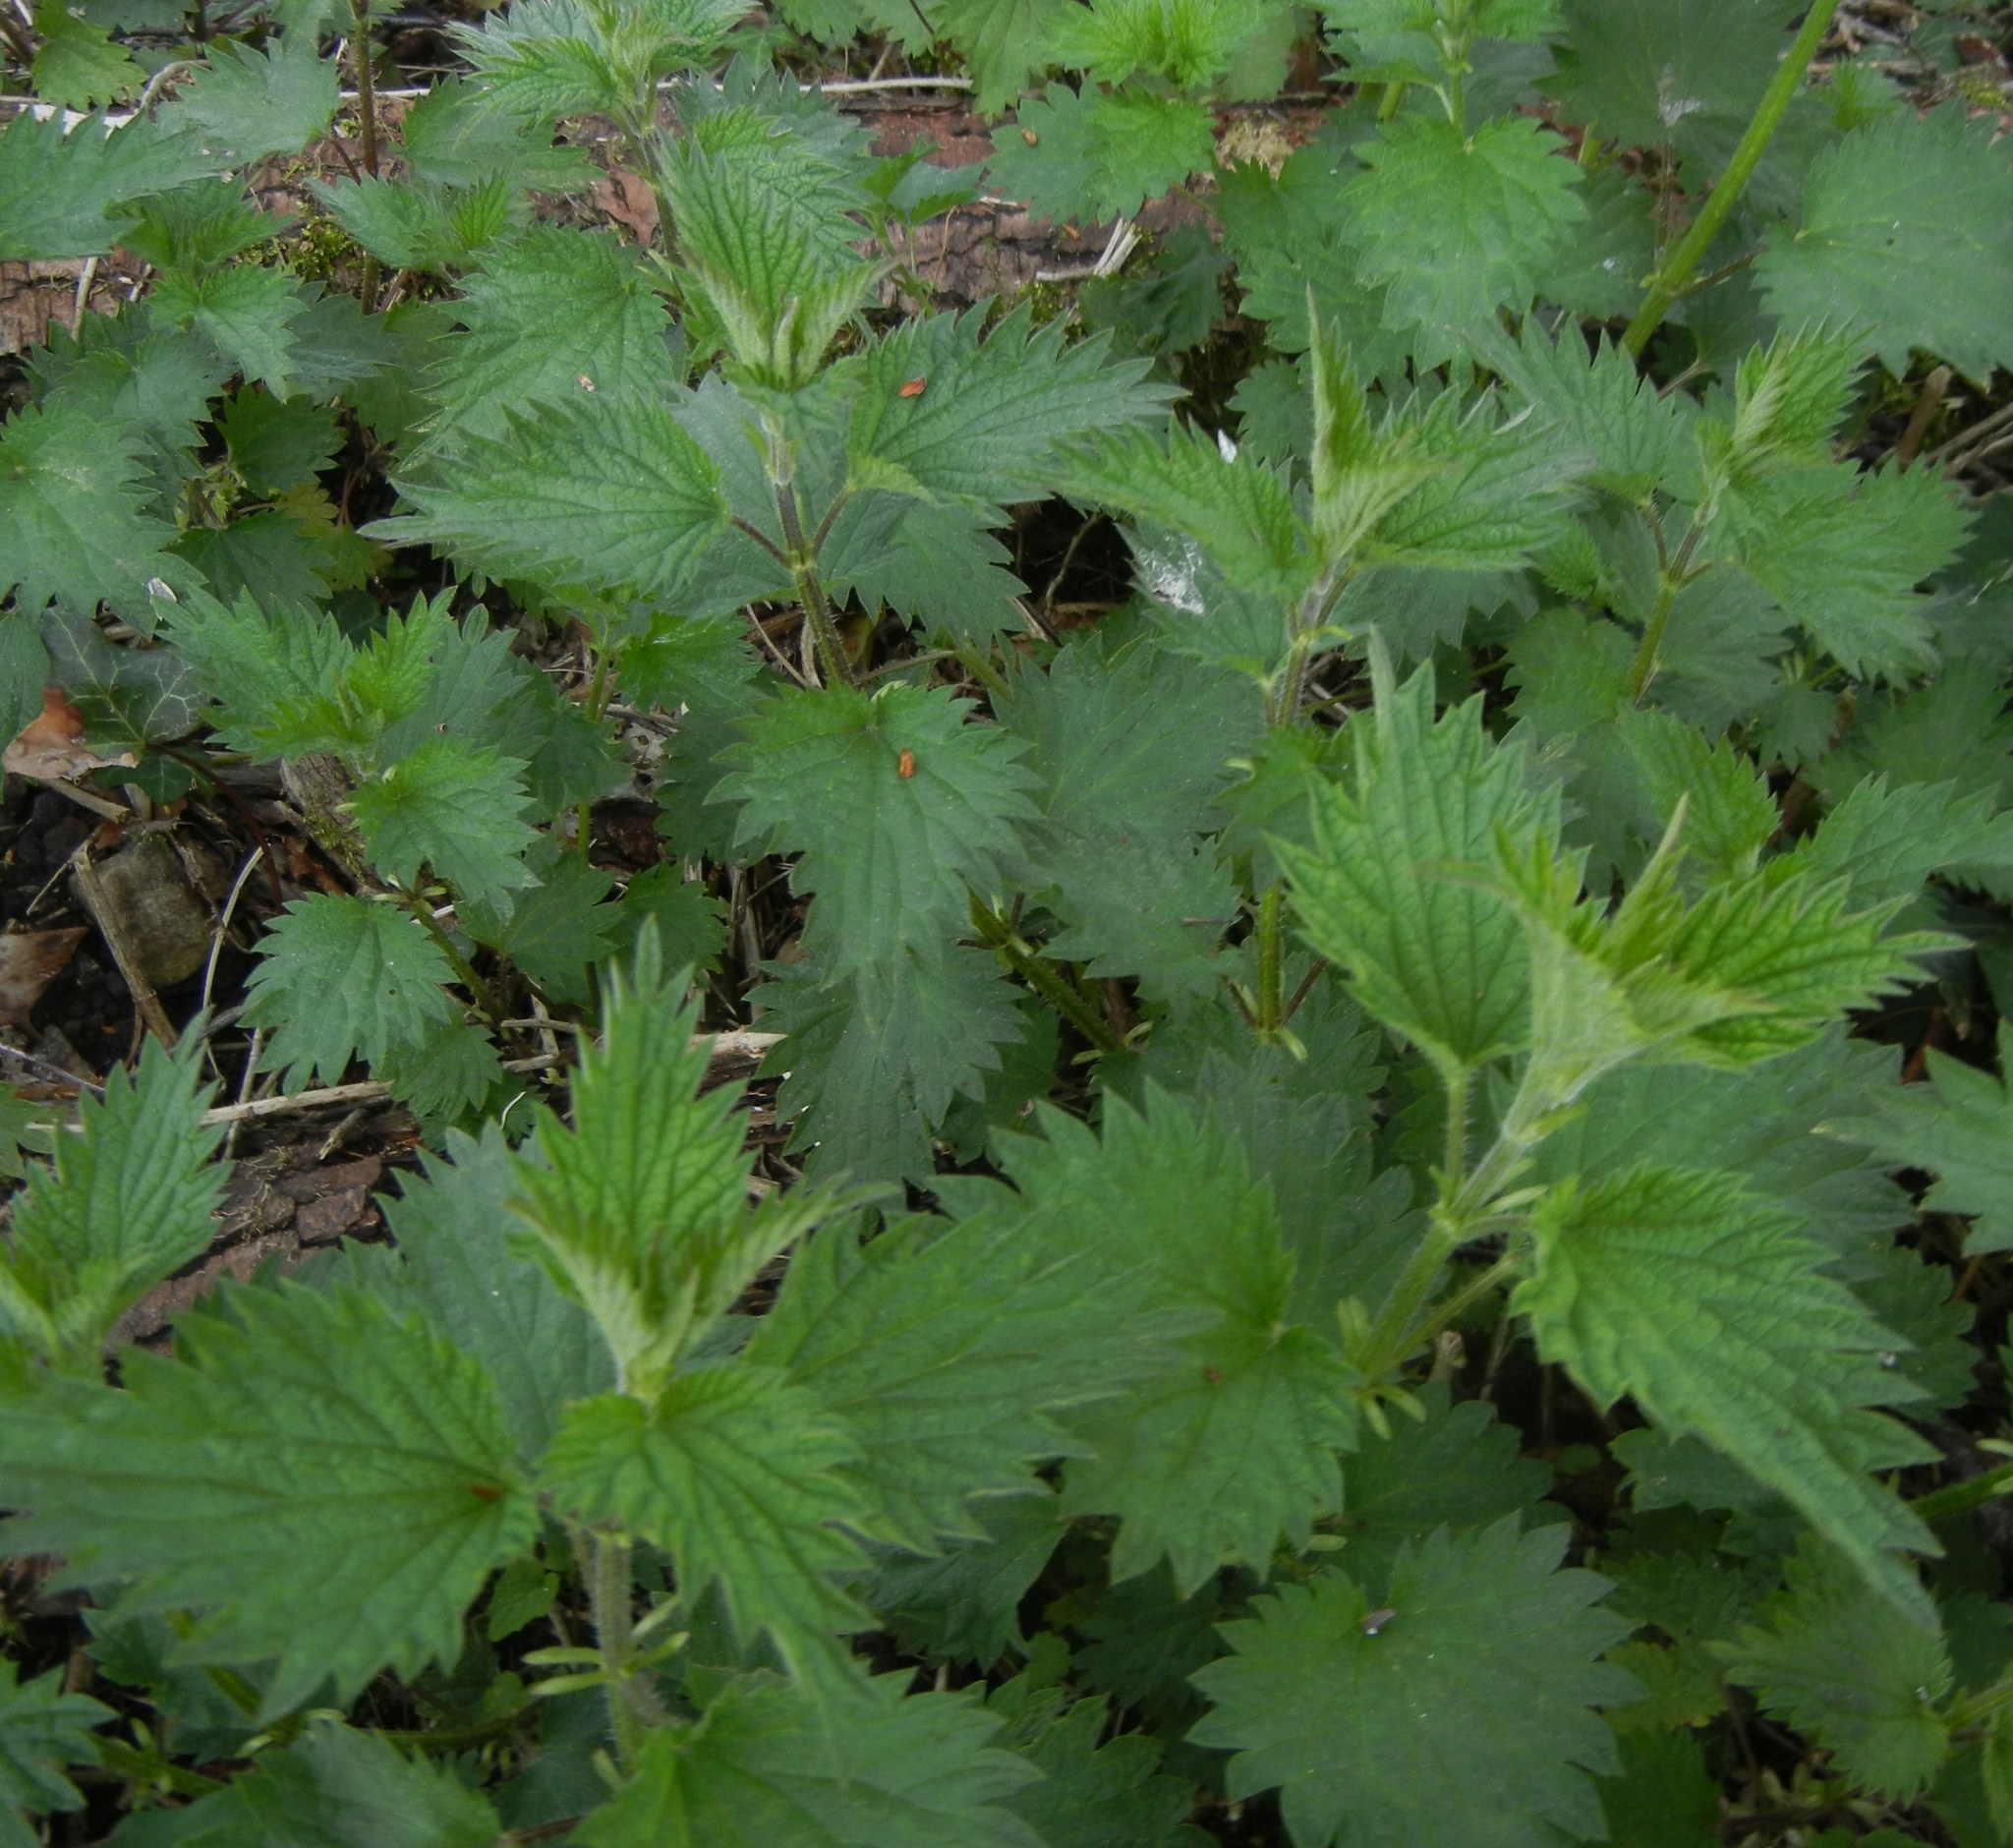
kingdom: Plantae
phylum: Tracheophyta
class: Magnoliopsida
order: Rosales
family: Urticaceae
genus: Urtica
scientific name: Urtica dioica
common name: Common nettle
